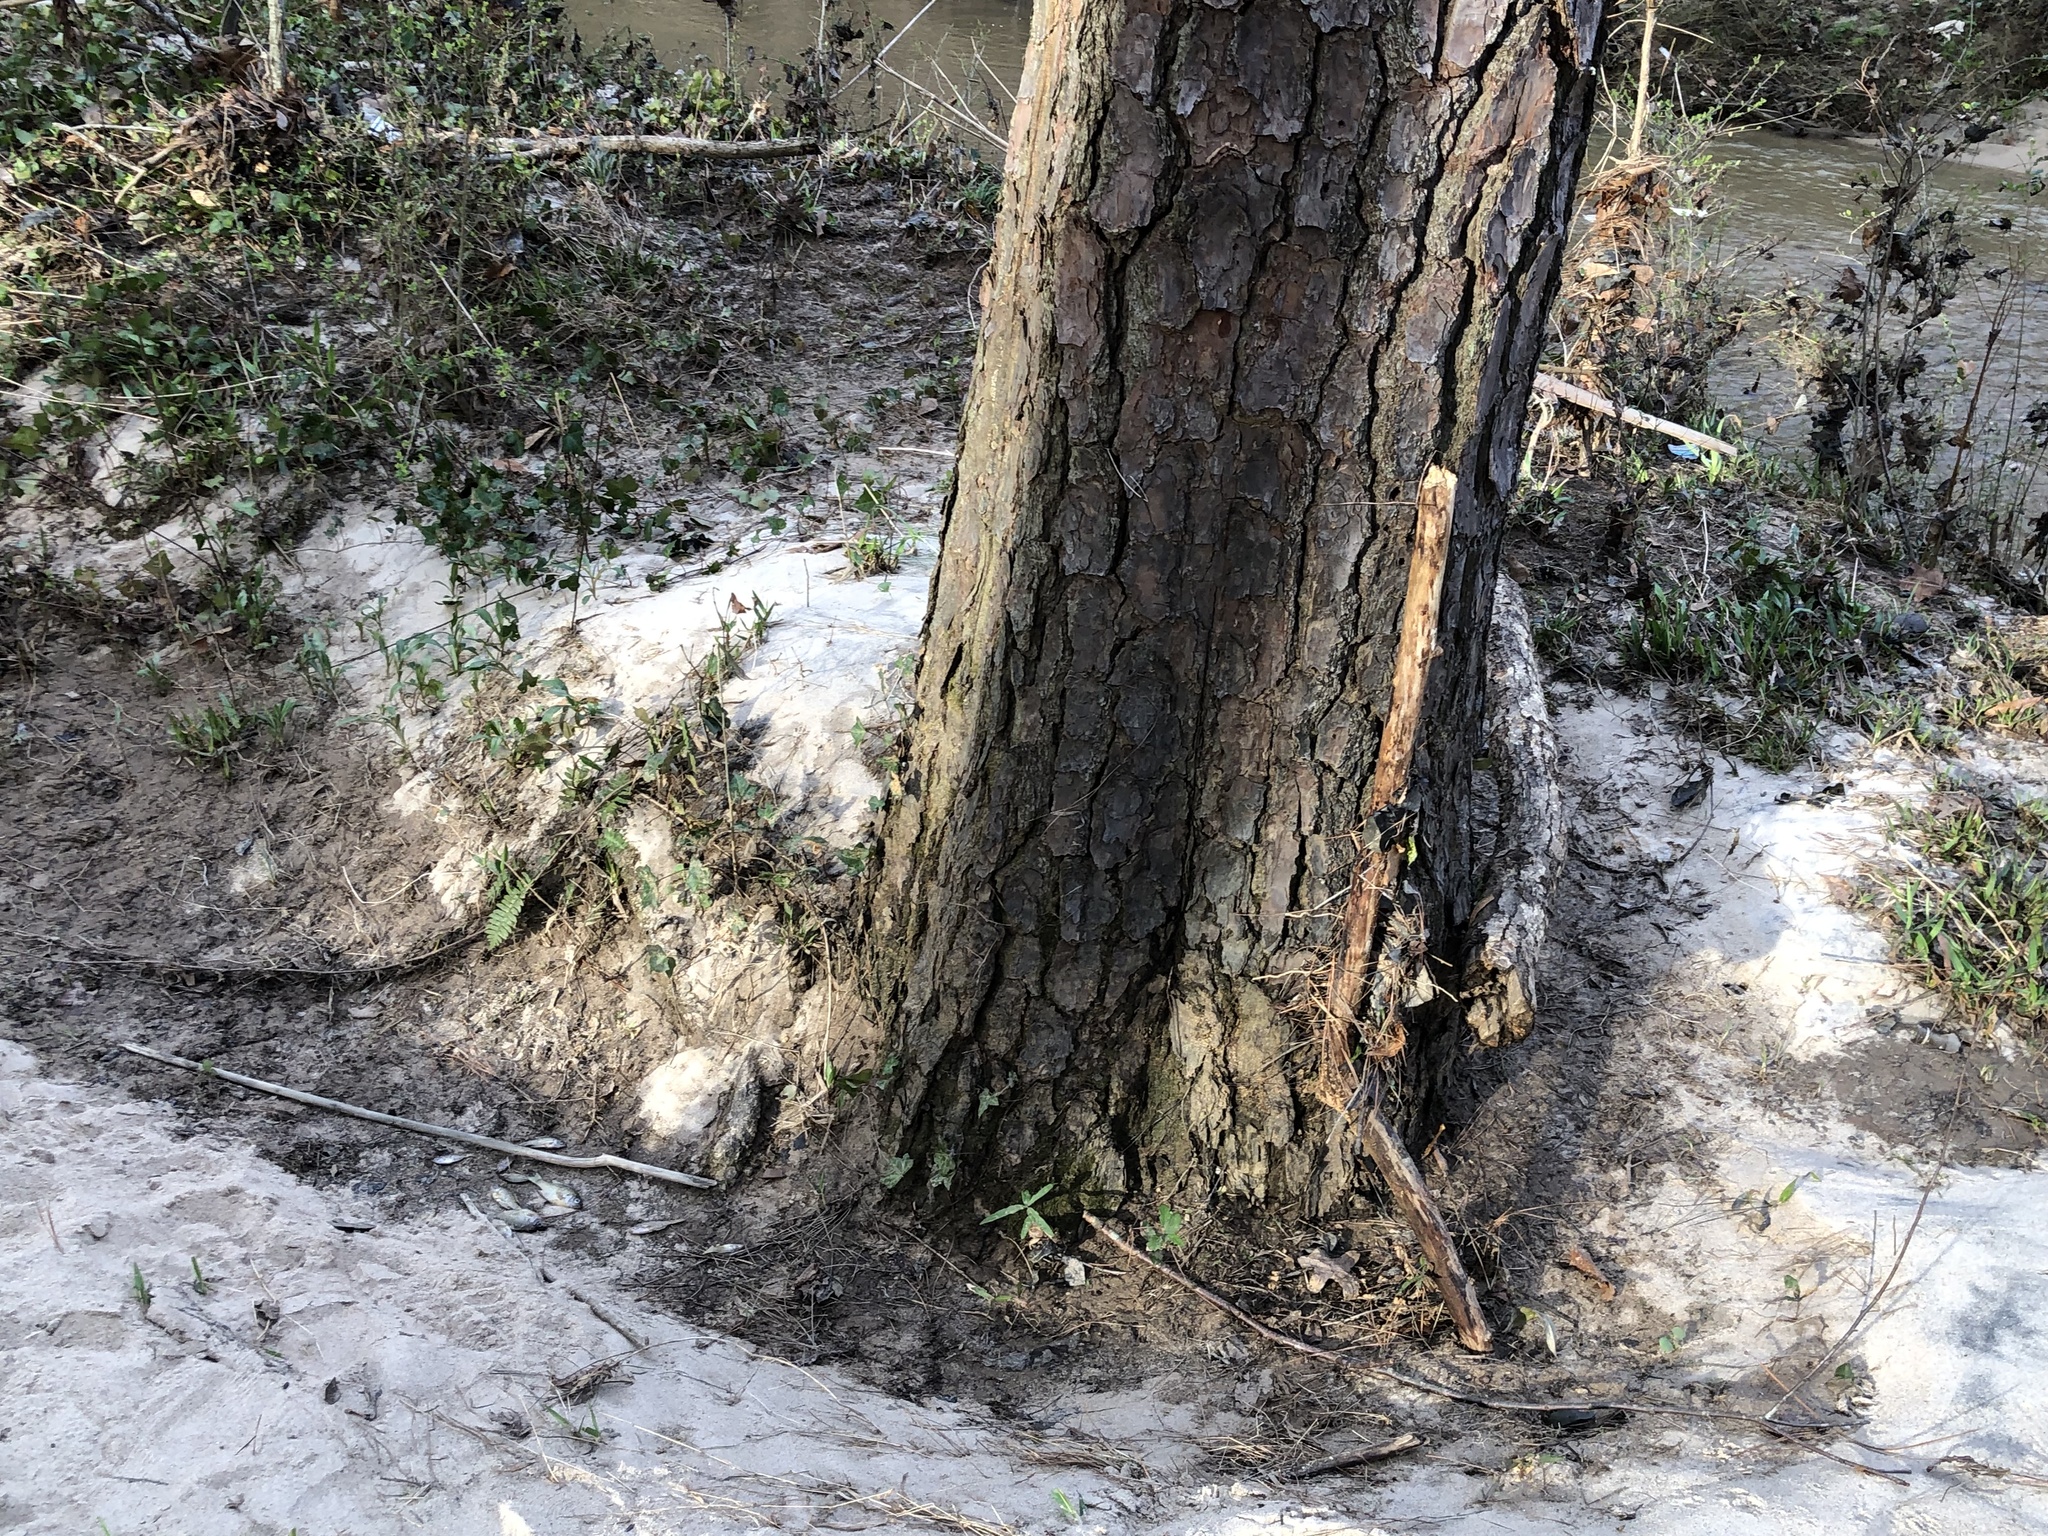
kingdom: Animalia
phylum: Chordata
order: Perciformes
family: Centrarchidae
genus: Lepomis
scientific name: Lepomis macrochirus
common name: Bluegill
